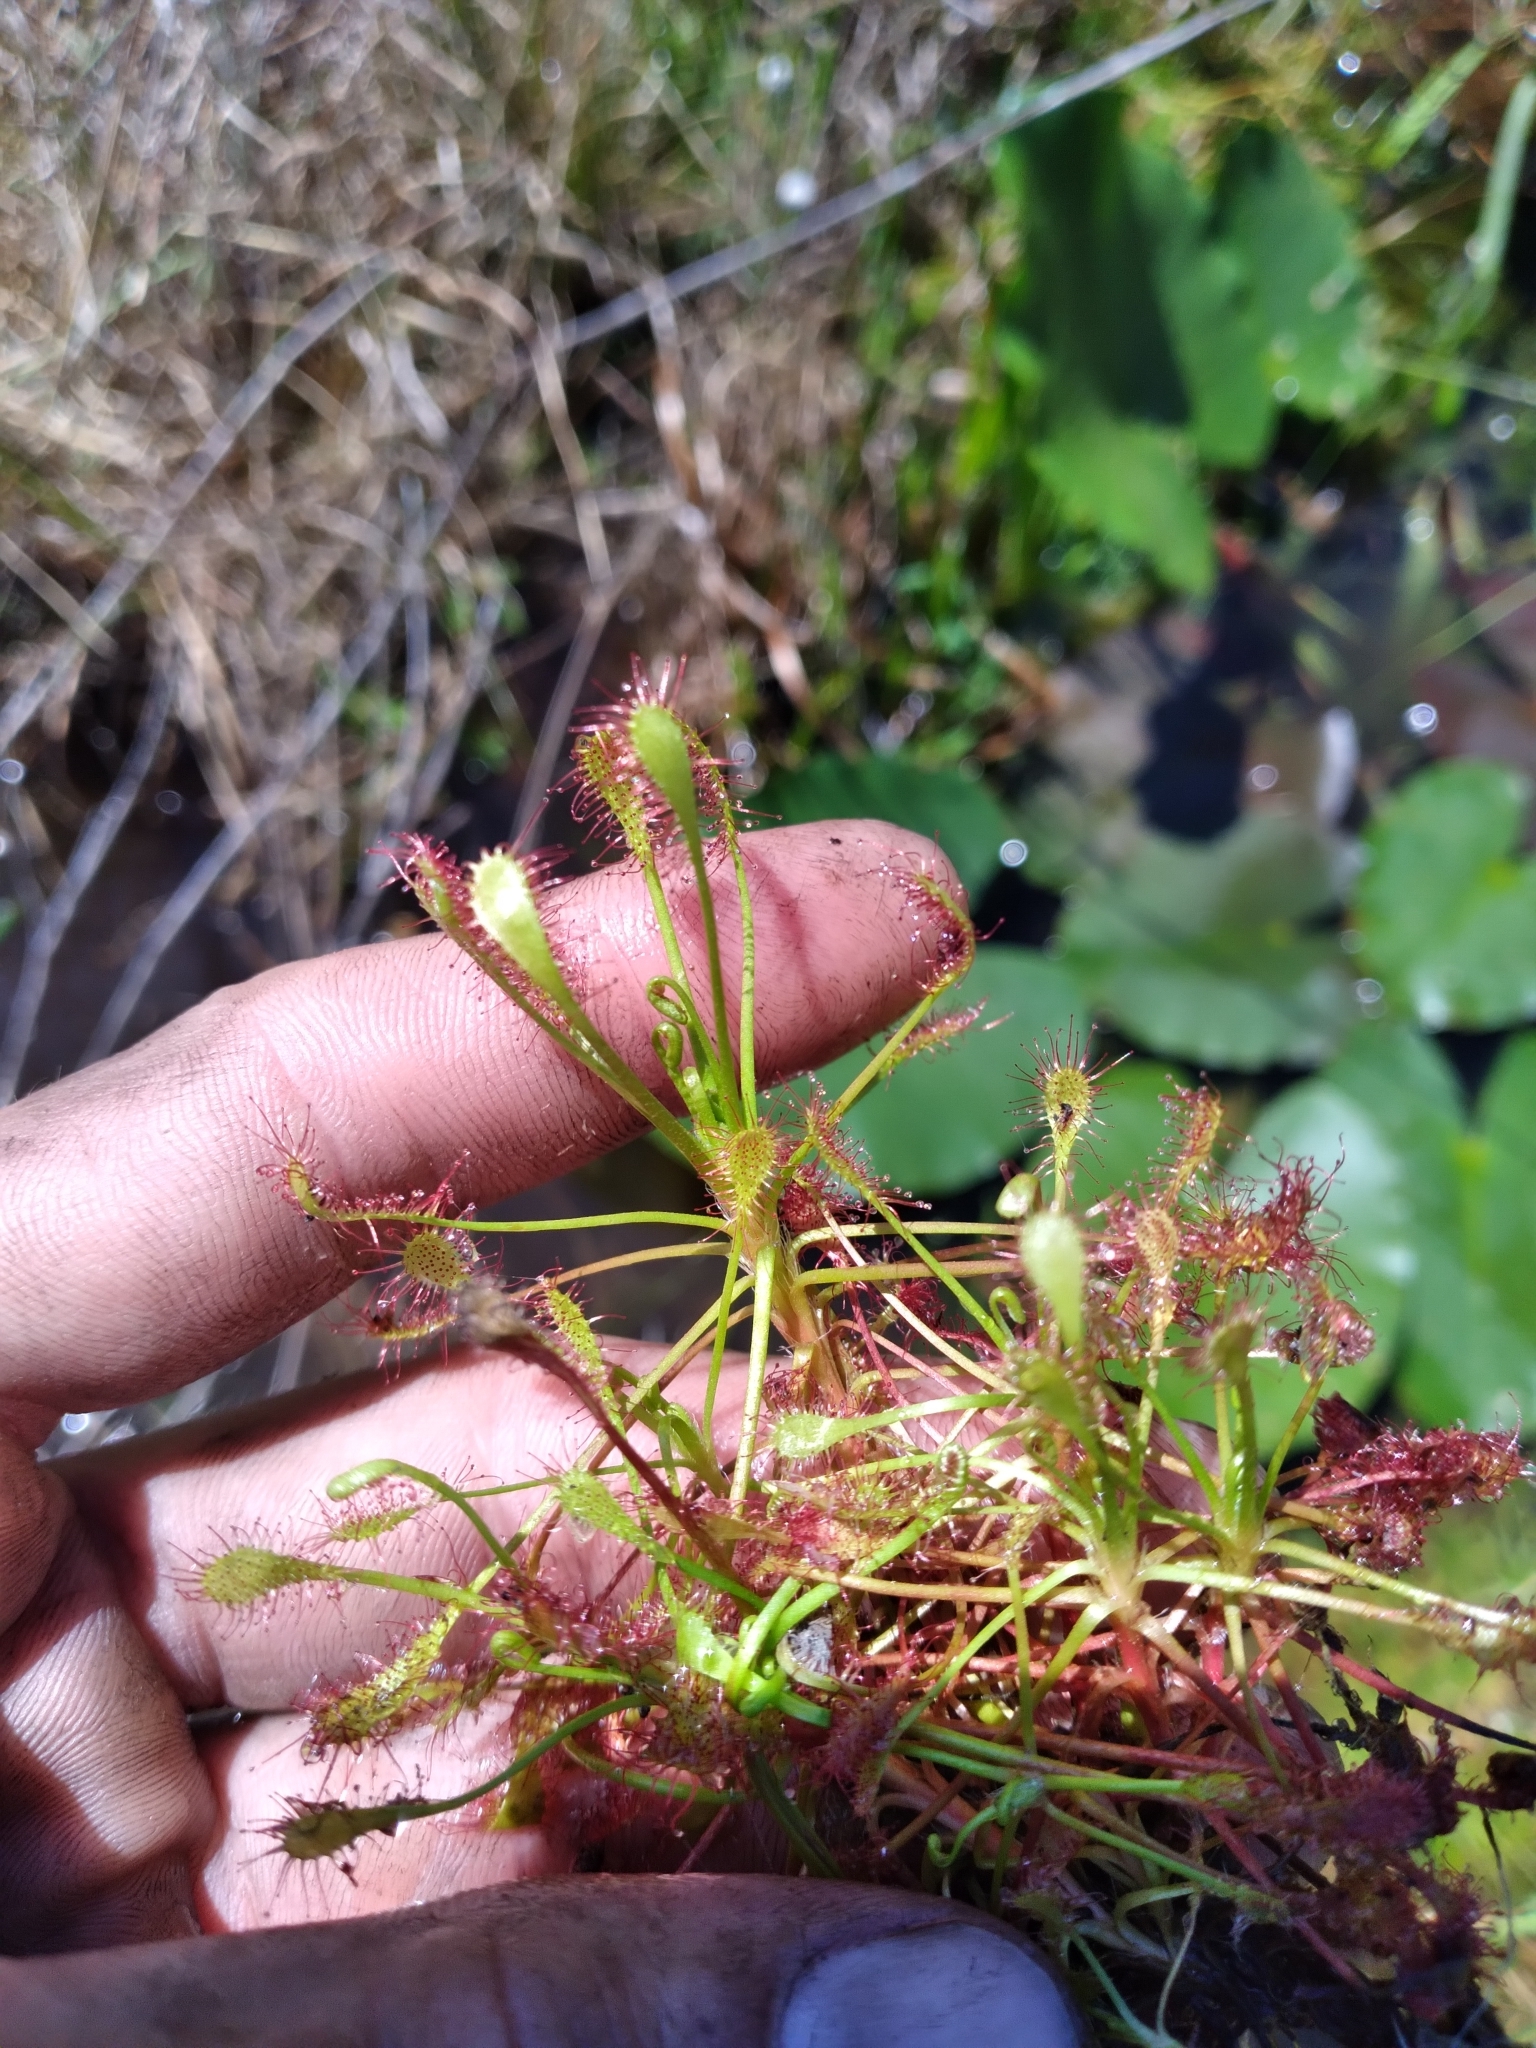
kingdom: Plantae
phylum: Tracheophyta
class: Magnoliopsida
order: Caryophyllales
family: Droseraceae
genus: Drosera
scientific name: Drosera intermedia
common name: Oblong-leaved sundew
